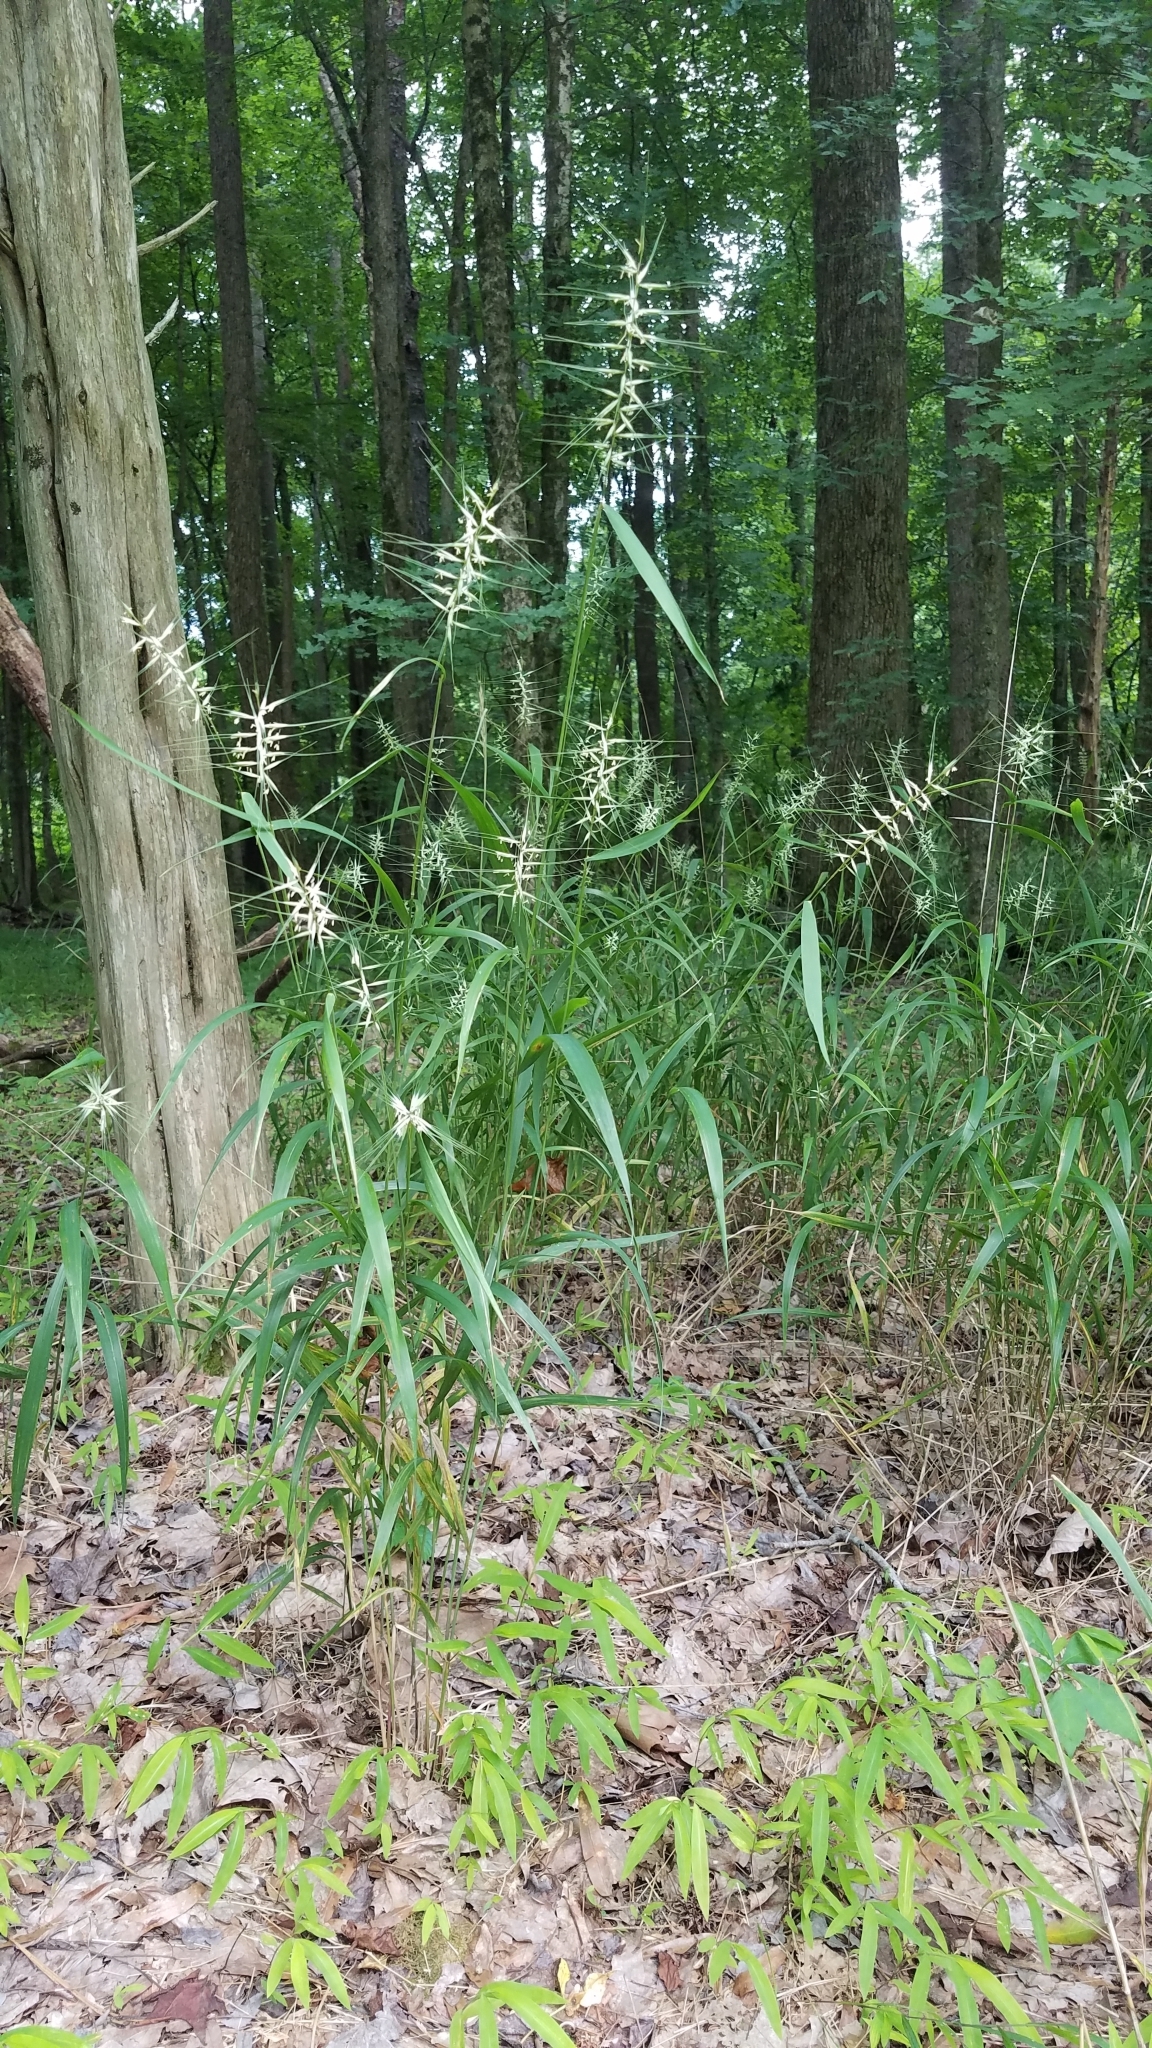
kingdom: Plantae
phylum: Tracheophyta
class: Liliopsida
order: Poales
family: Poaceae
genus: Elymus
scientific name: Elymus hystrix
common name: Bottlebrush grass
